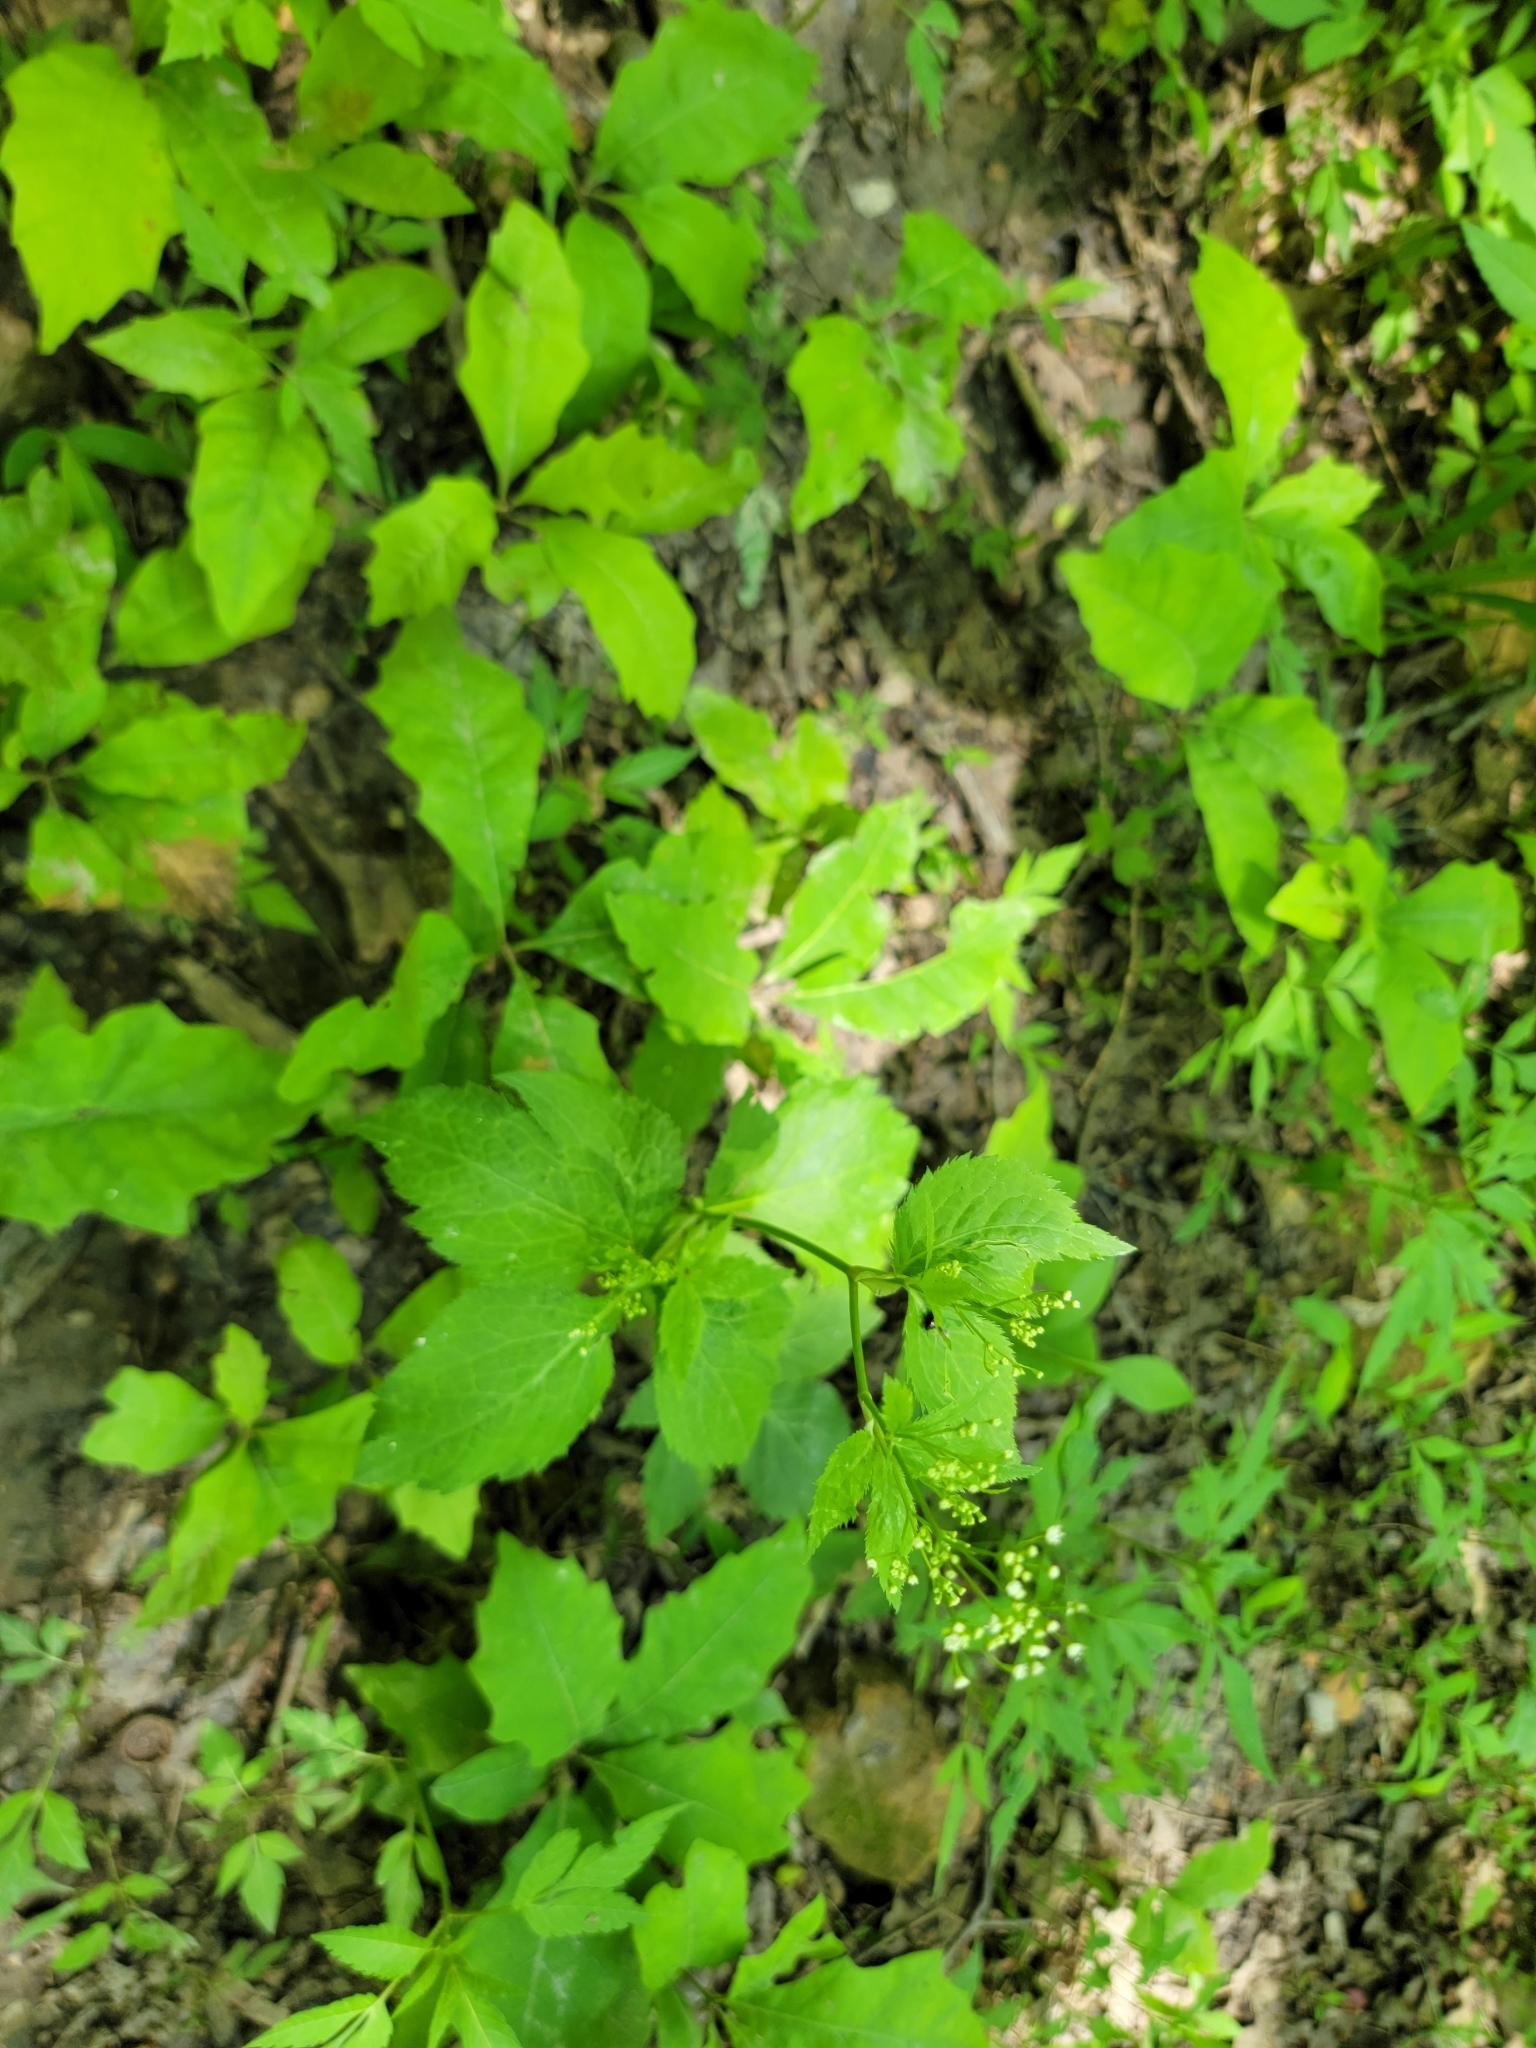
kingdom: Plantae
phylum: Tracheophyta
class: Magnoliopsida
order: Apiales
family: Apiaceae
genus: Cryptotaenia
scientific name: Cryptotaenia canadensis
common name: Honewort
